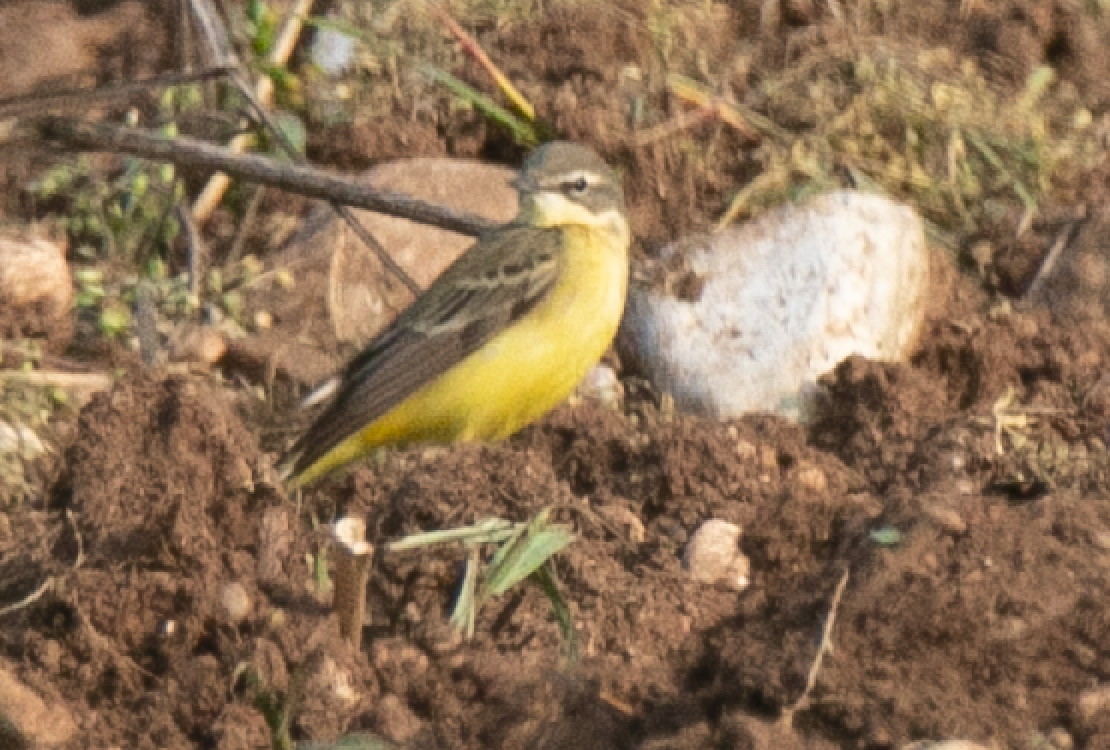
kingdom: Animalia
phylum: Chordata
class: Aves
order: Passeriformes
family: Motacillidae
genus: Motacilla
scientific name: Motacilla flava
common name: Western yellow wagtail
